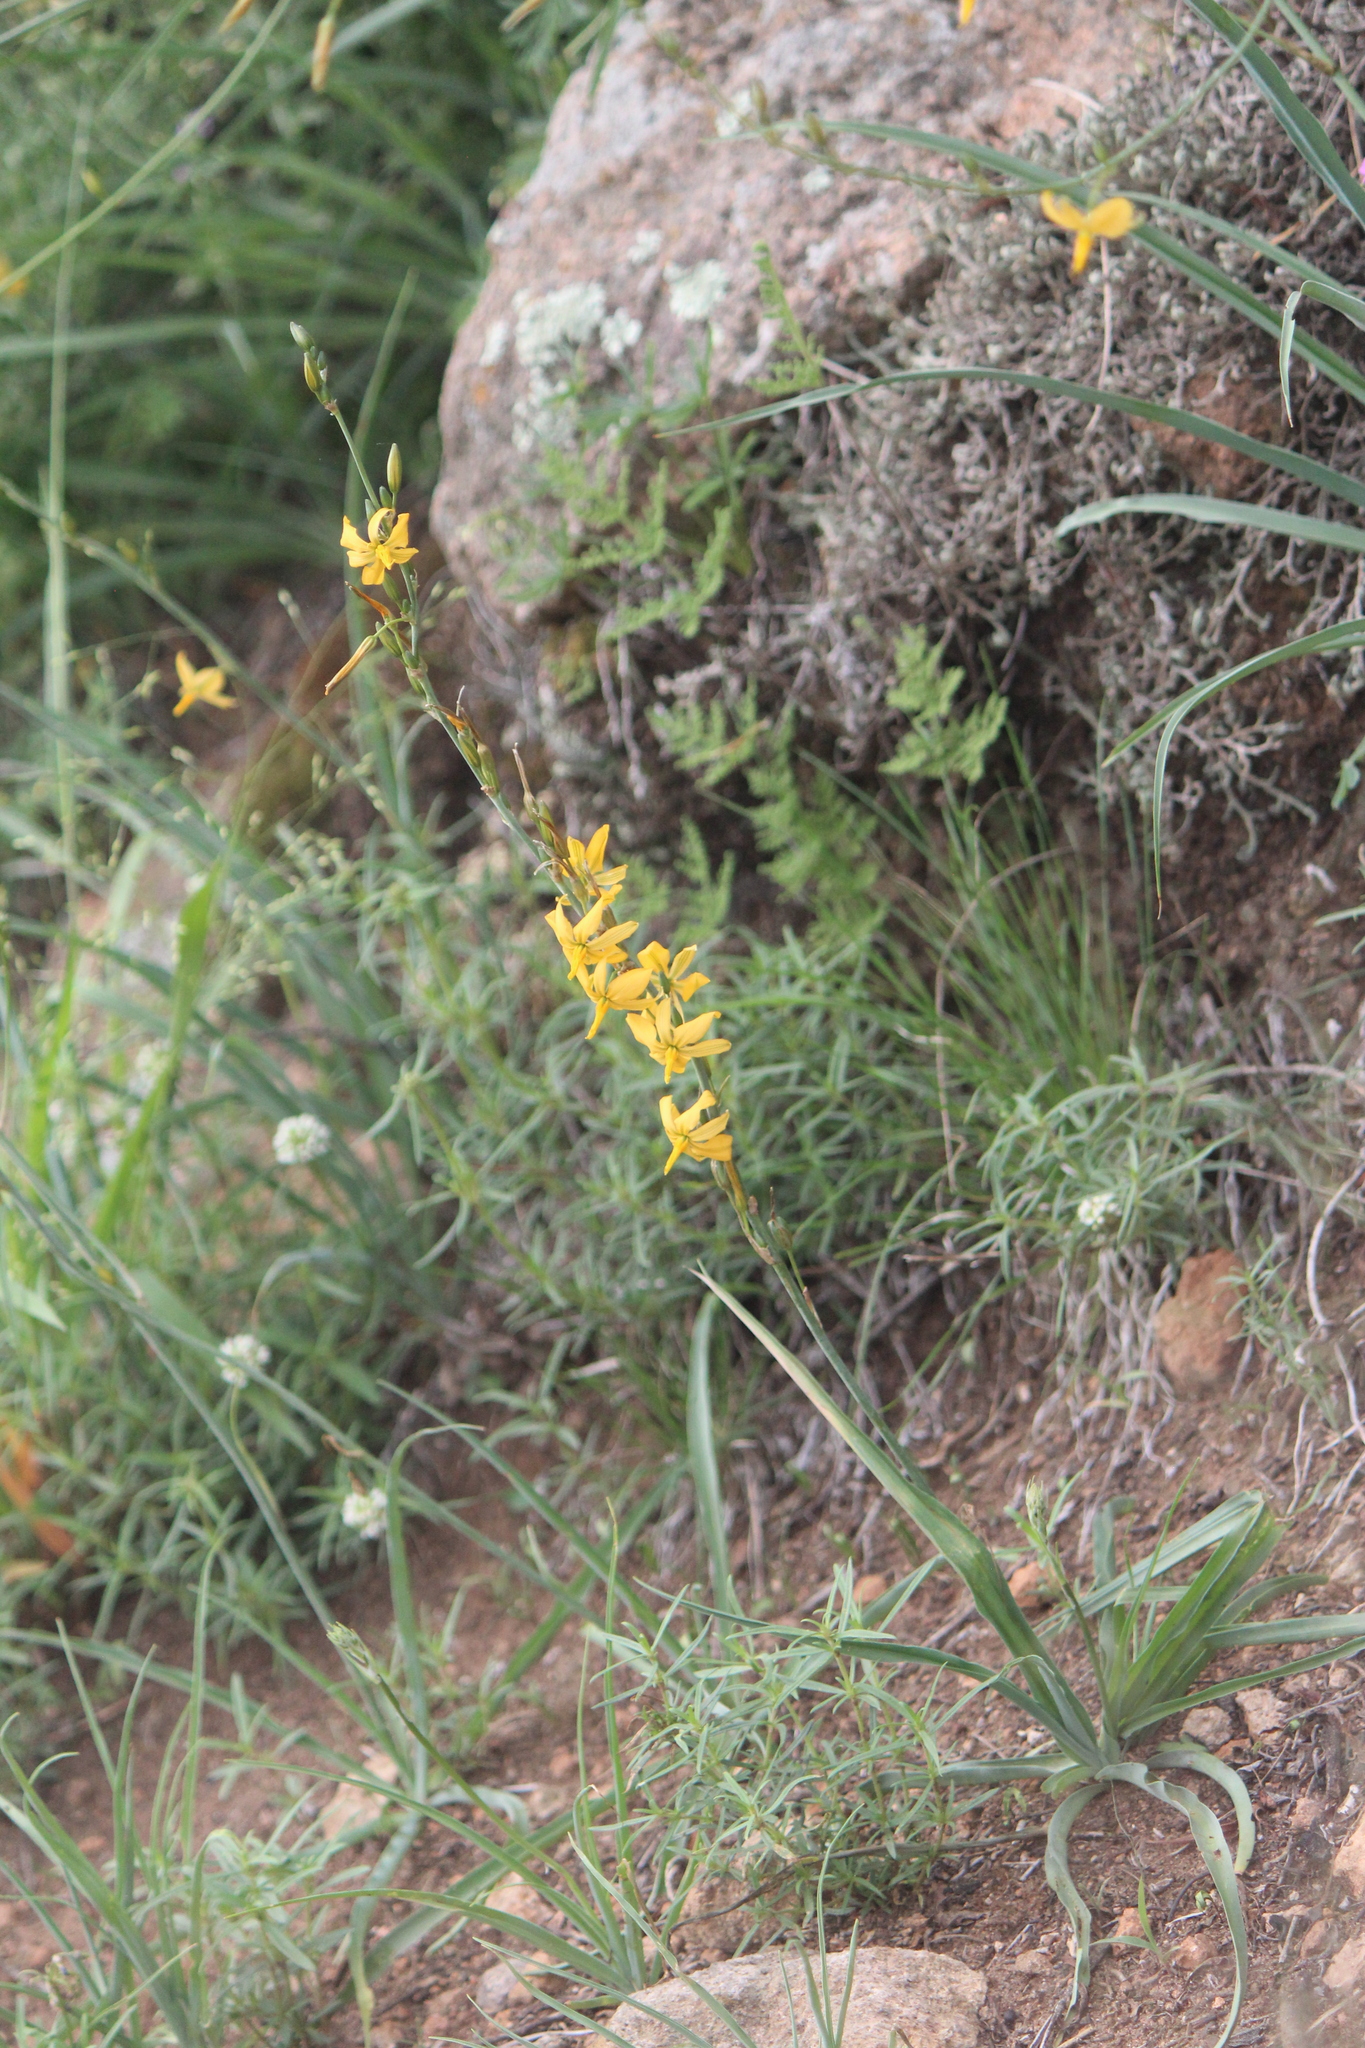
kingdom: Plantae
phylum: Tracheophyta
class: Liliopsida
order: Asparagales
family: Asparagaceae
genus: Echeandia
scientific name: Echeandia falcata
